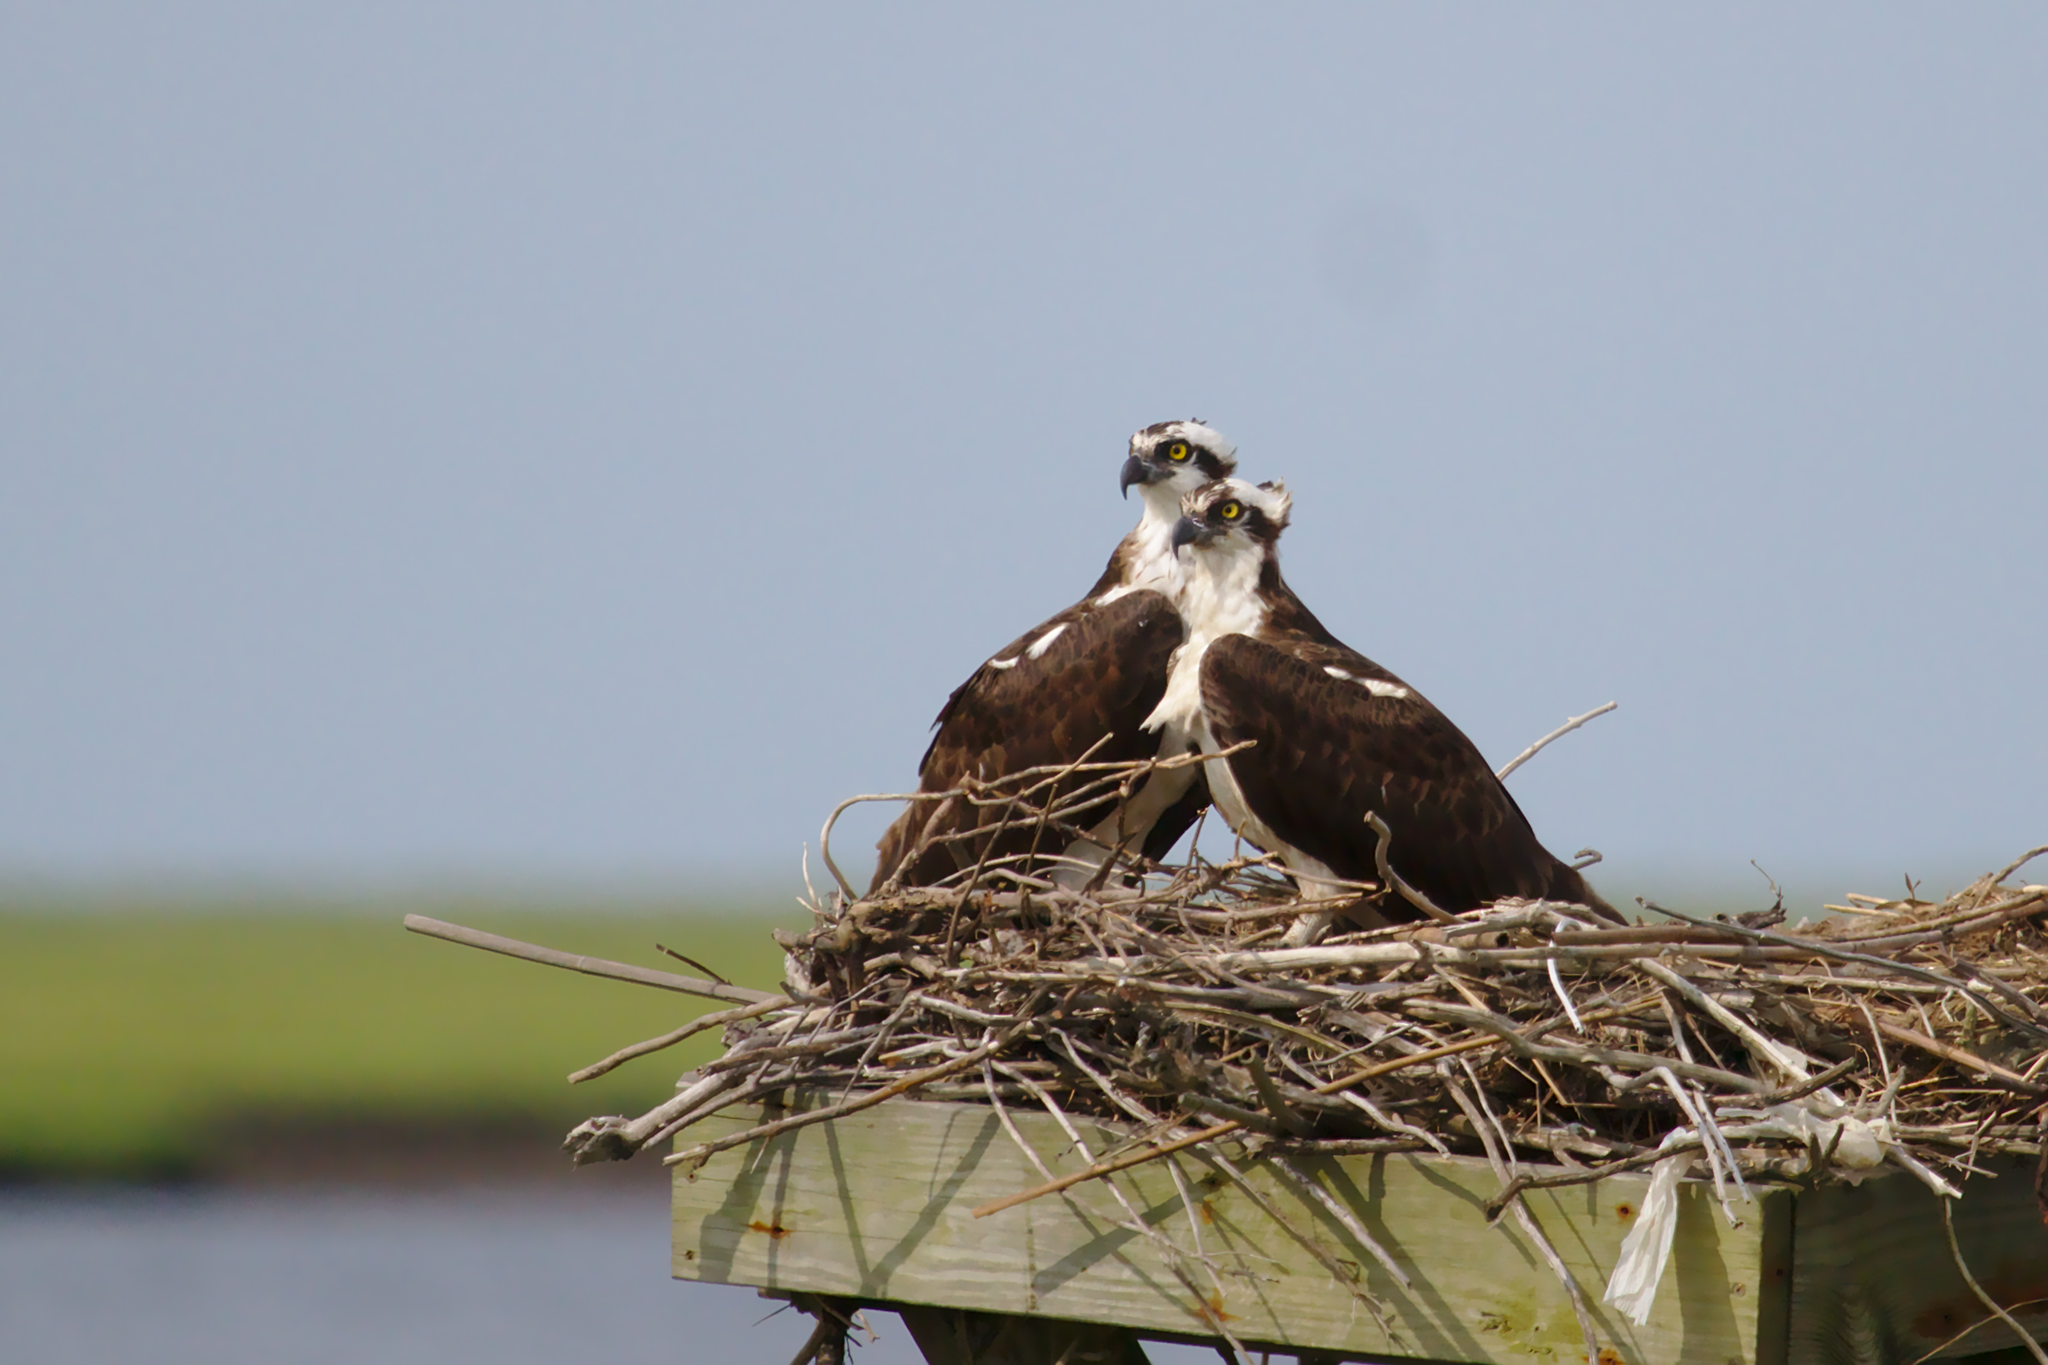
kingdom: Animalia
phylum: Chordata
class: Aves
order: Accipitriformes
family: Pandionidae
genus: Pandion
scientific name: Pandion haliaetus
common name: Osprey
